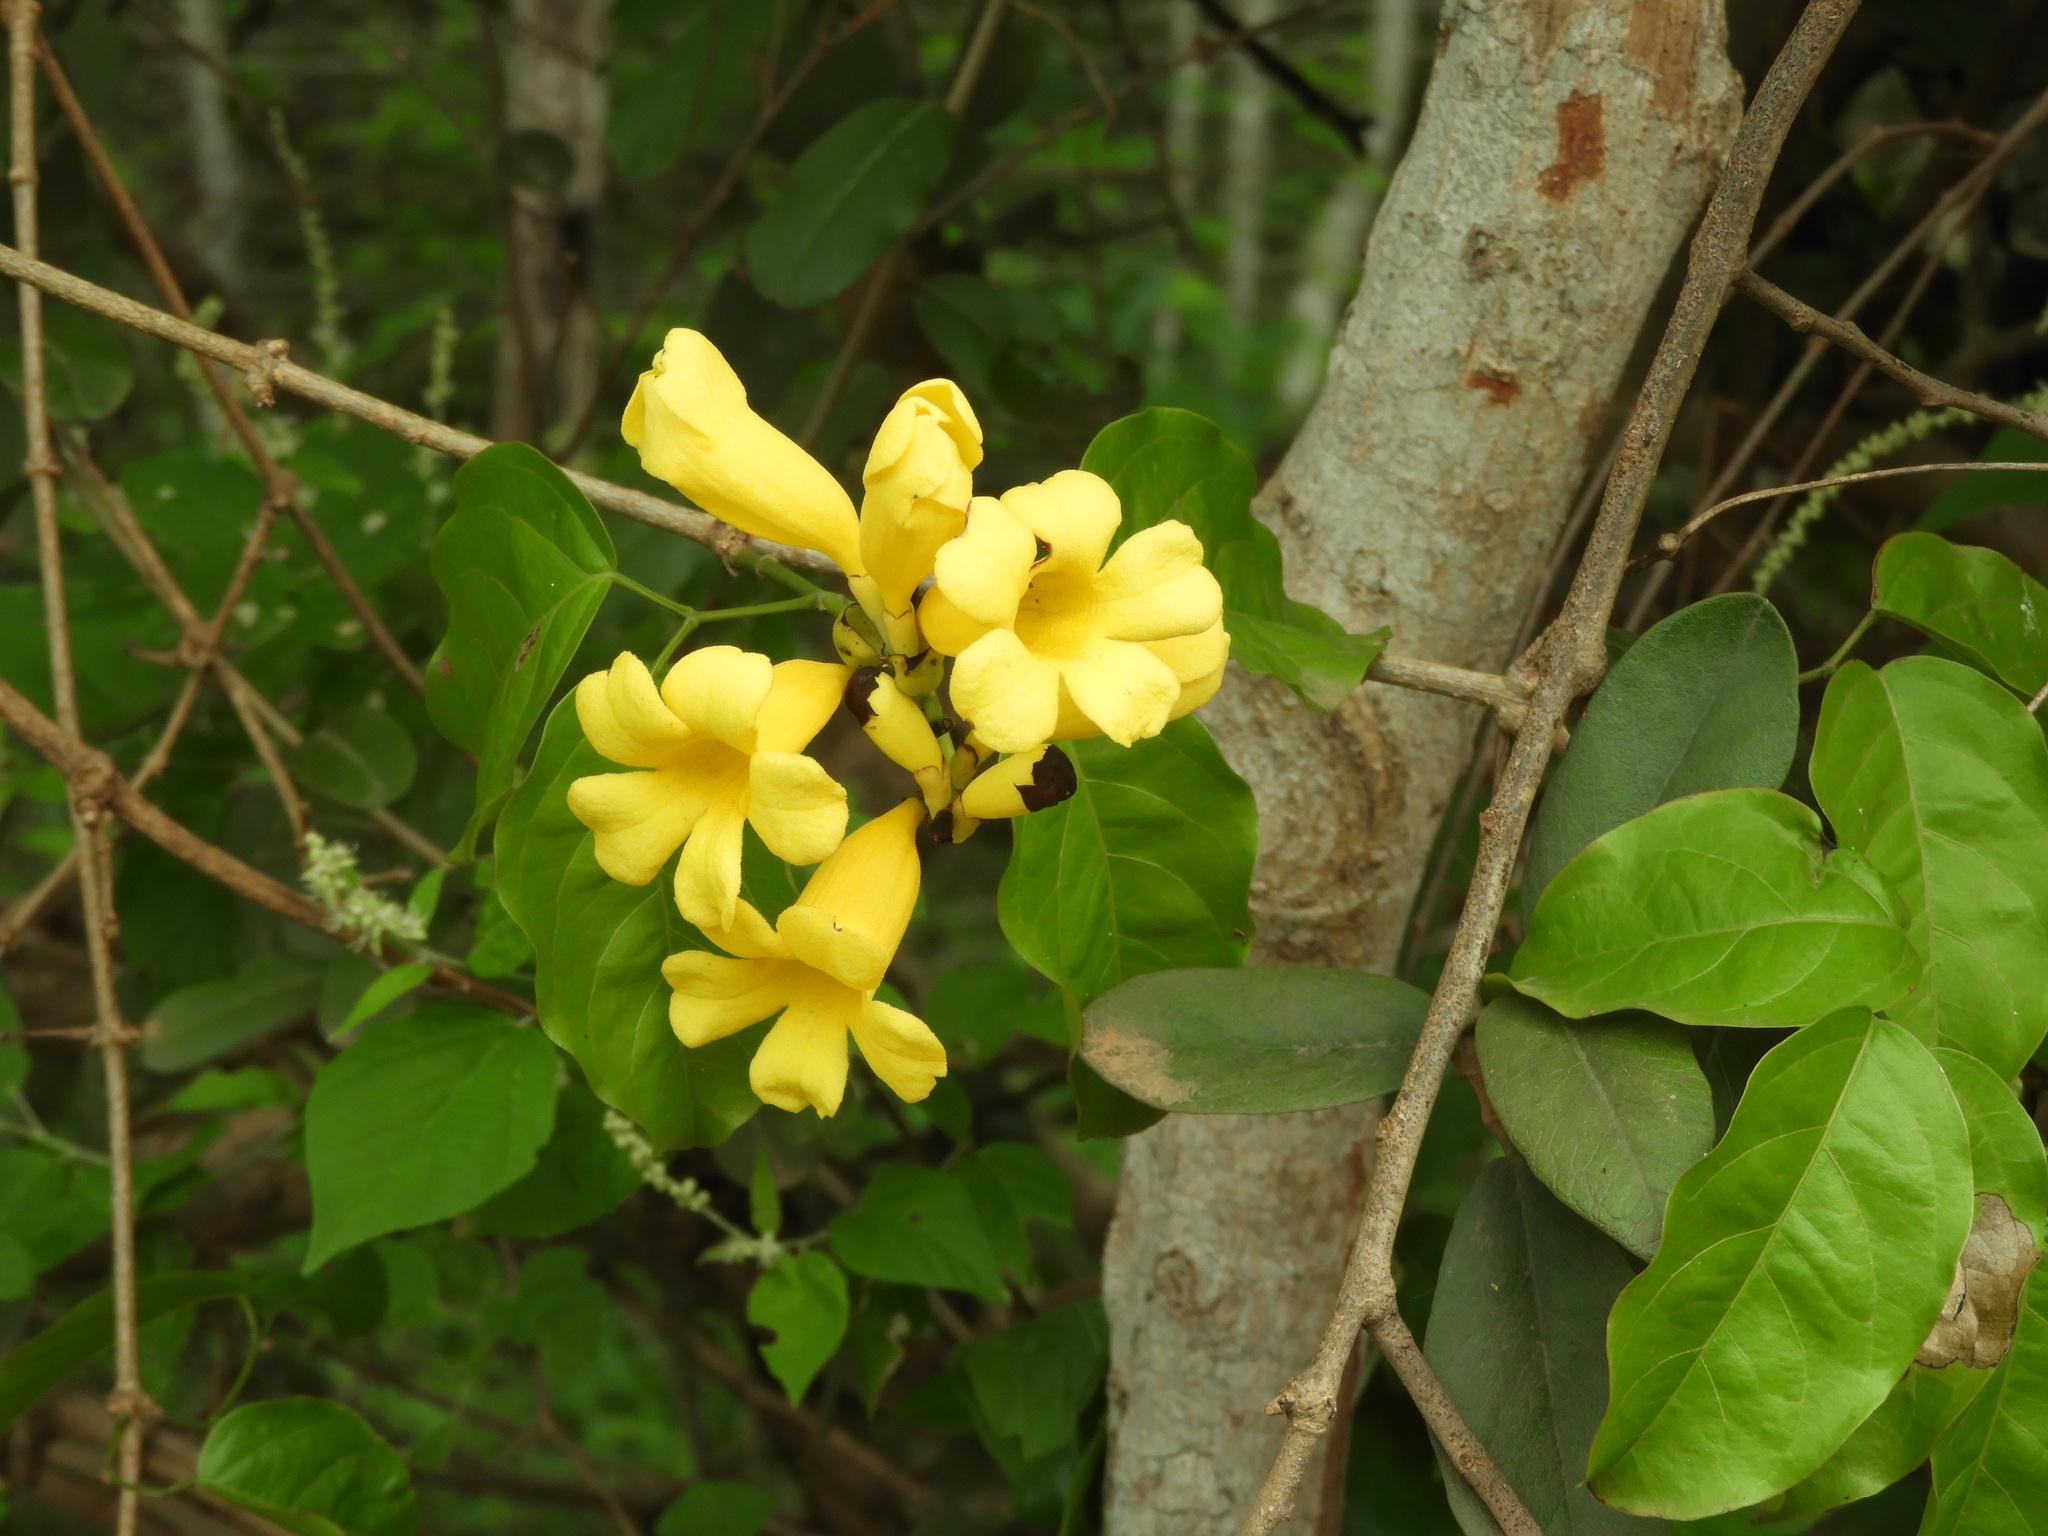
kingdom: Plantae
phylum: Tracheophyta
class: Magnoliopsida
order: Lamiales
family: Bignoniaceae
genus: Adenocalymma
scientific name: Adenocalymma inundatum
